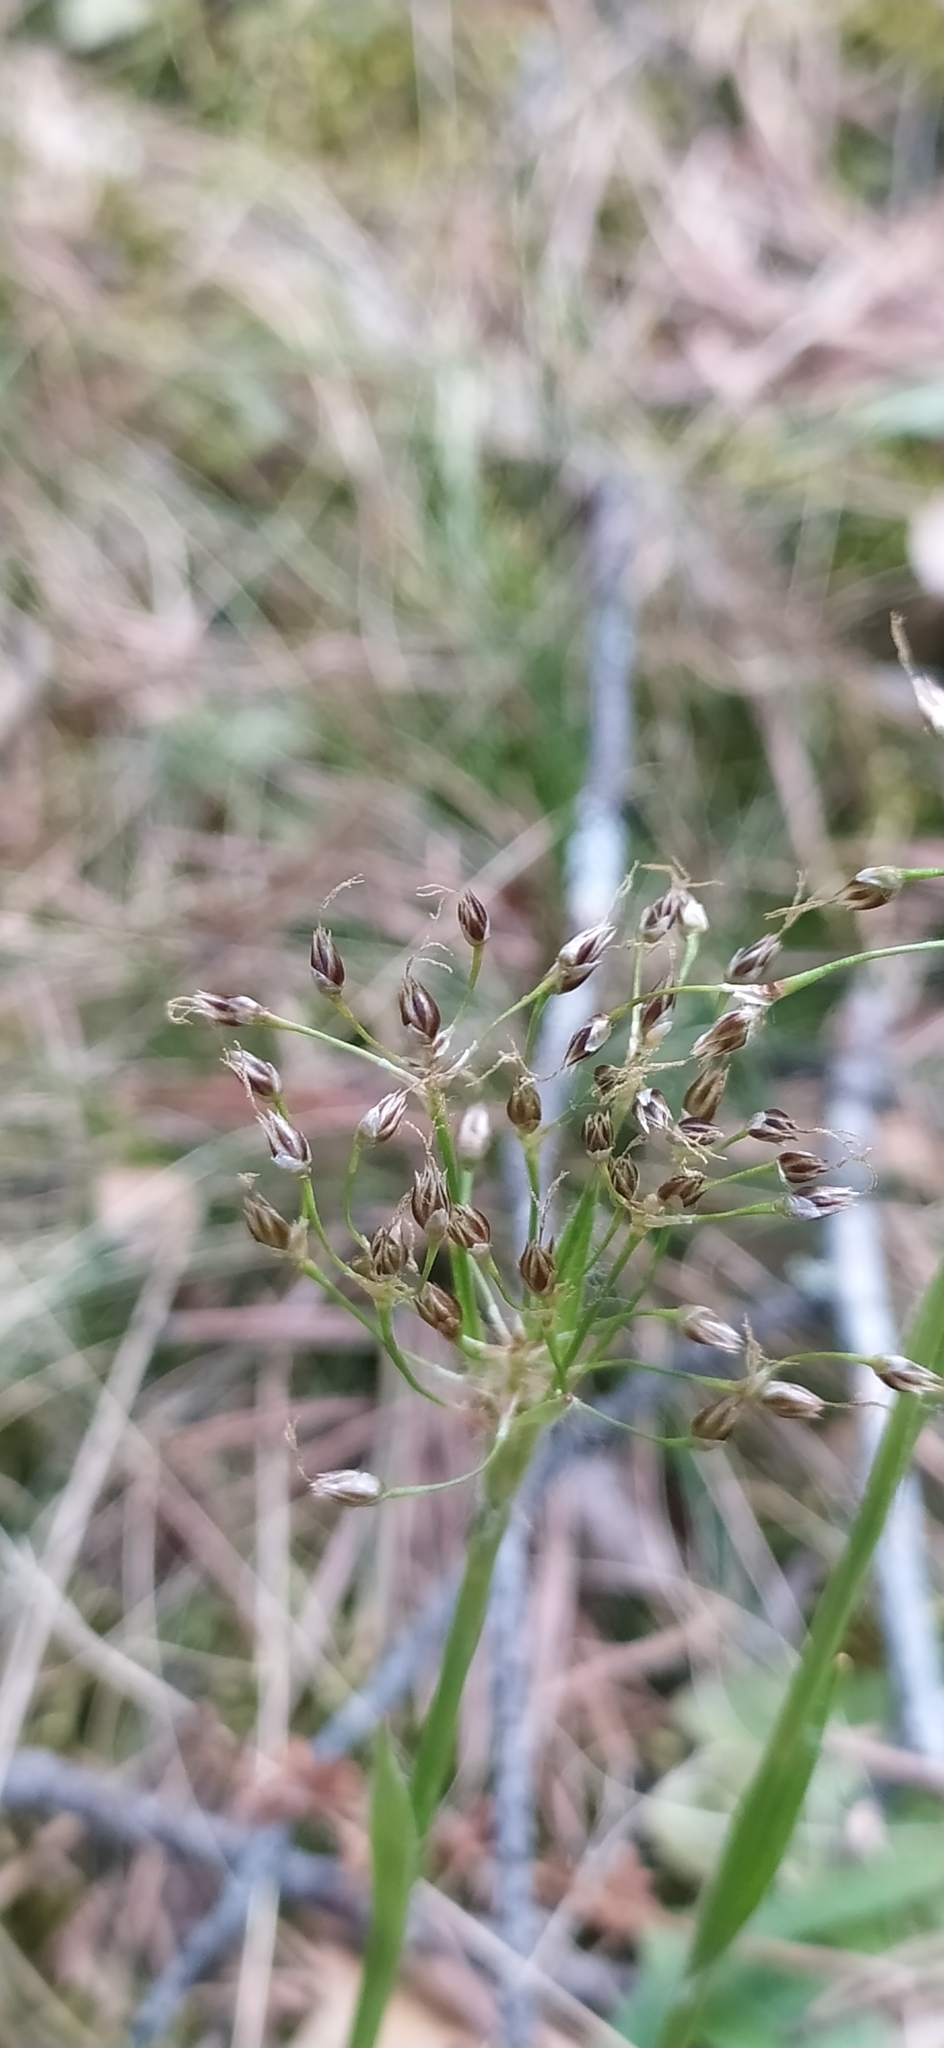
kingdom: Plantae
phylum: Tracheophyta
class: Liliopsida
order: Poales
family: Juncaceae
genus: Luzula
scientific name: Luzula pilosa
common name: Hairy wood-rush
